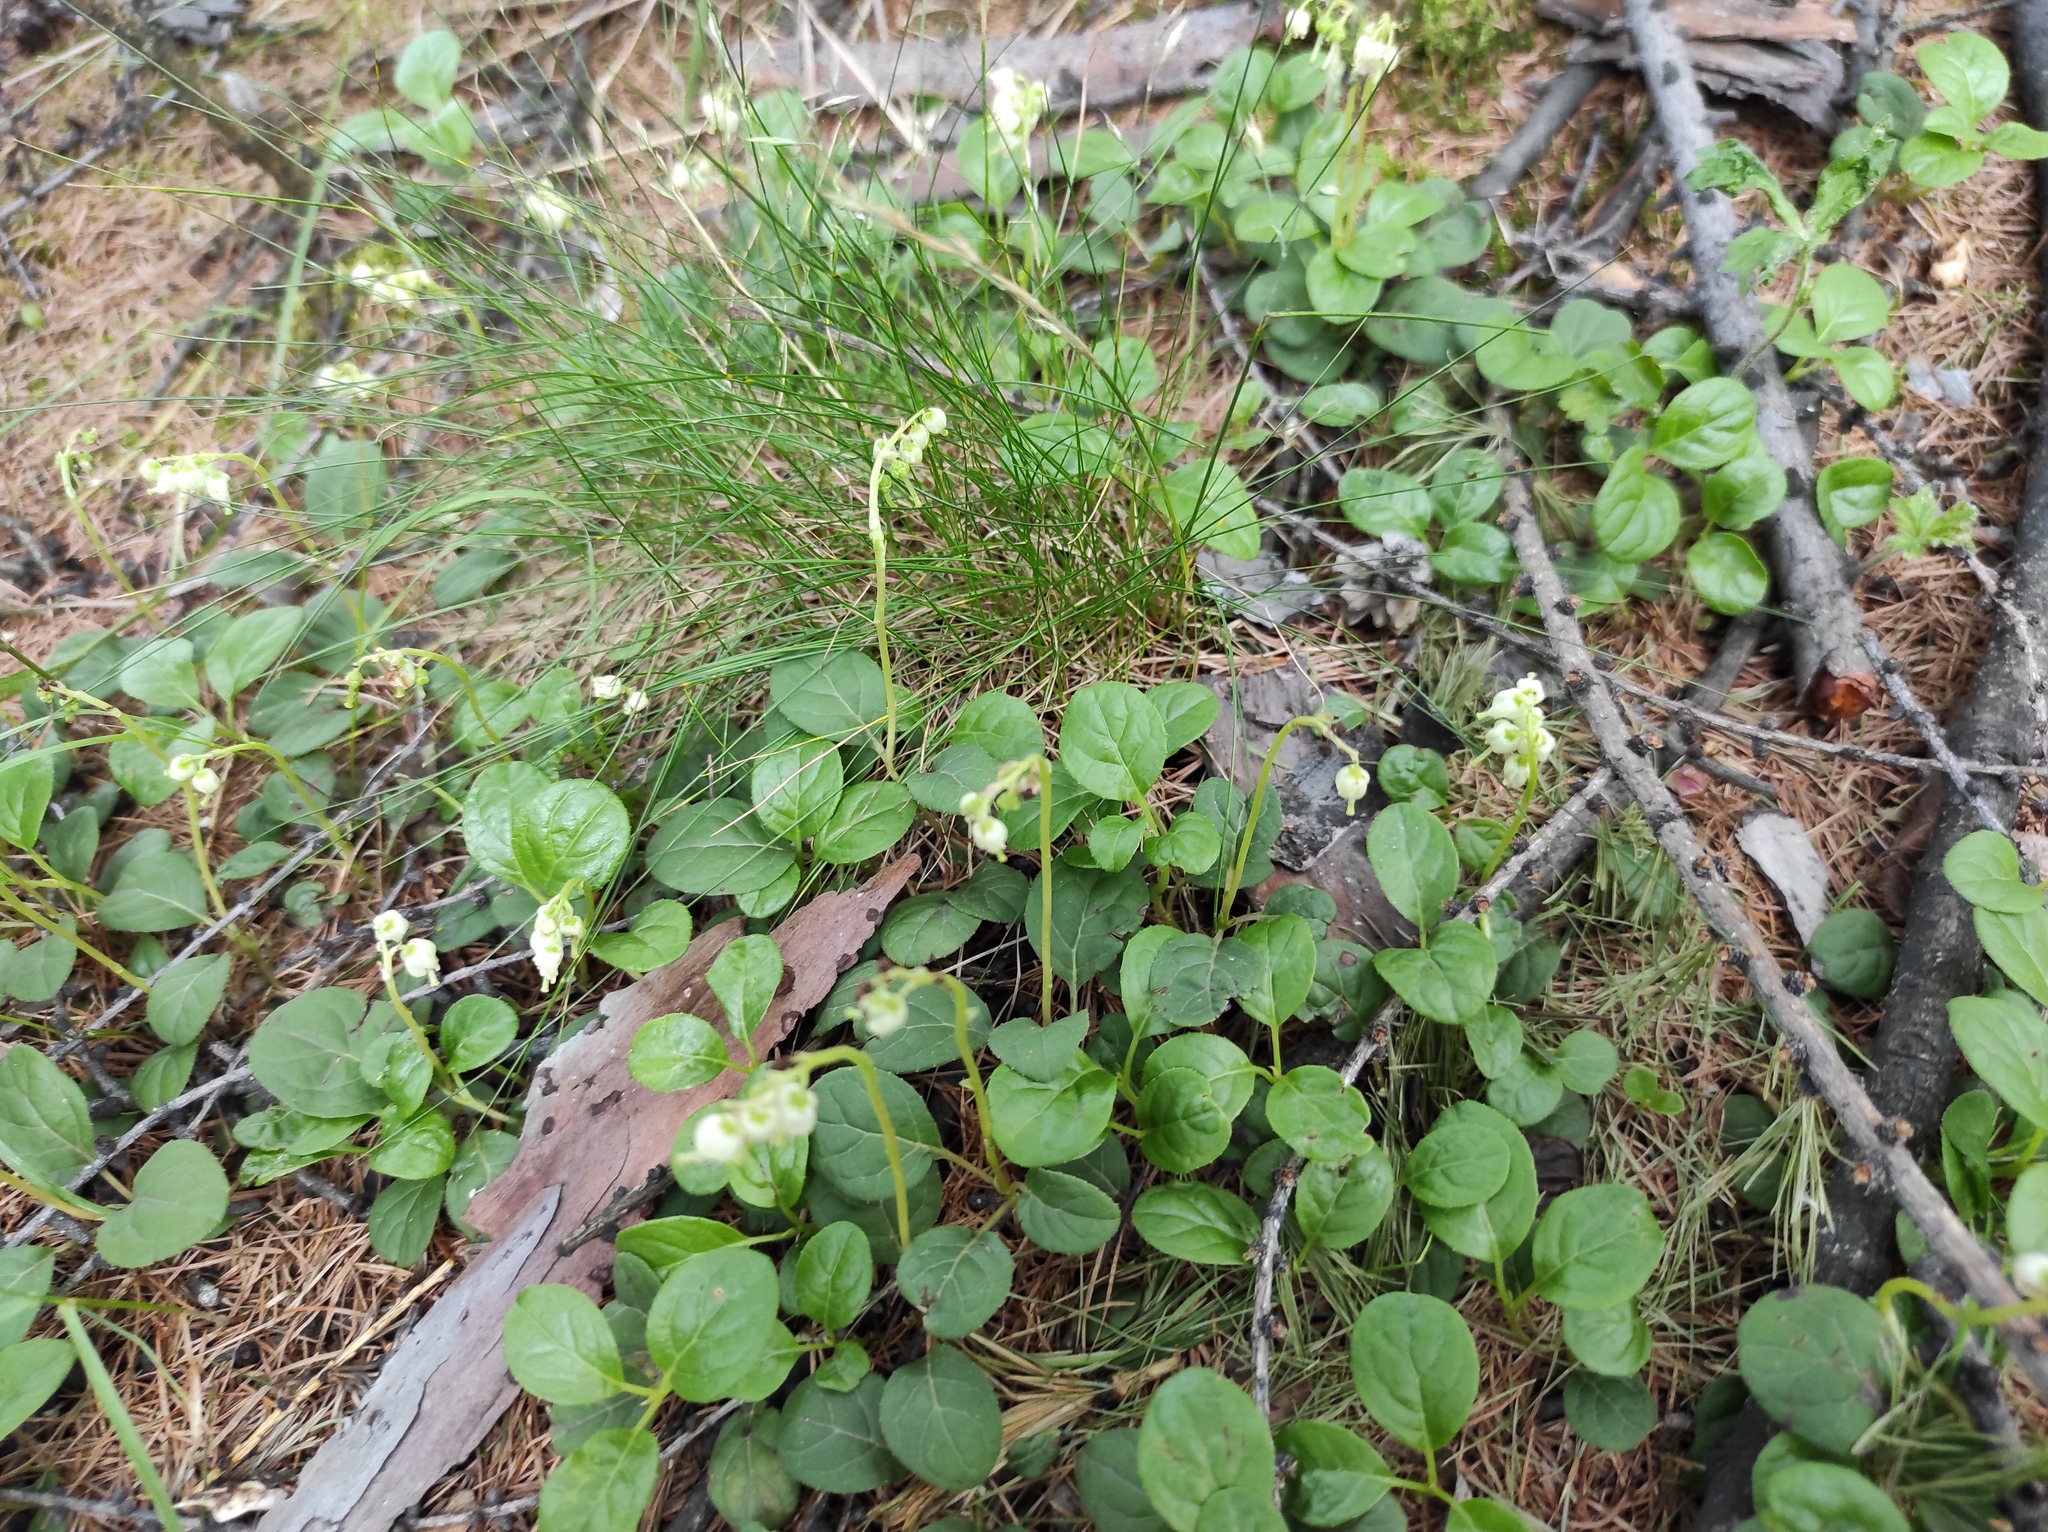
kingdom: Plantae
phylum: Tracheophyta
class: Magnoliopsida
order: Ericales
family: Ericaceae
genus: Orthilia
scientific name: Orthilia secunda
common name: One-sided orthilia
